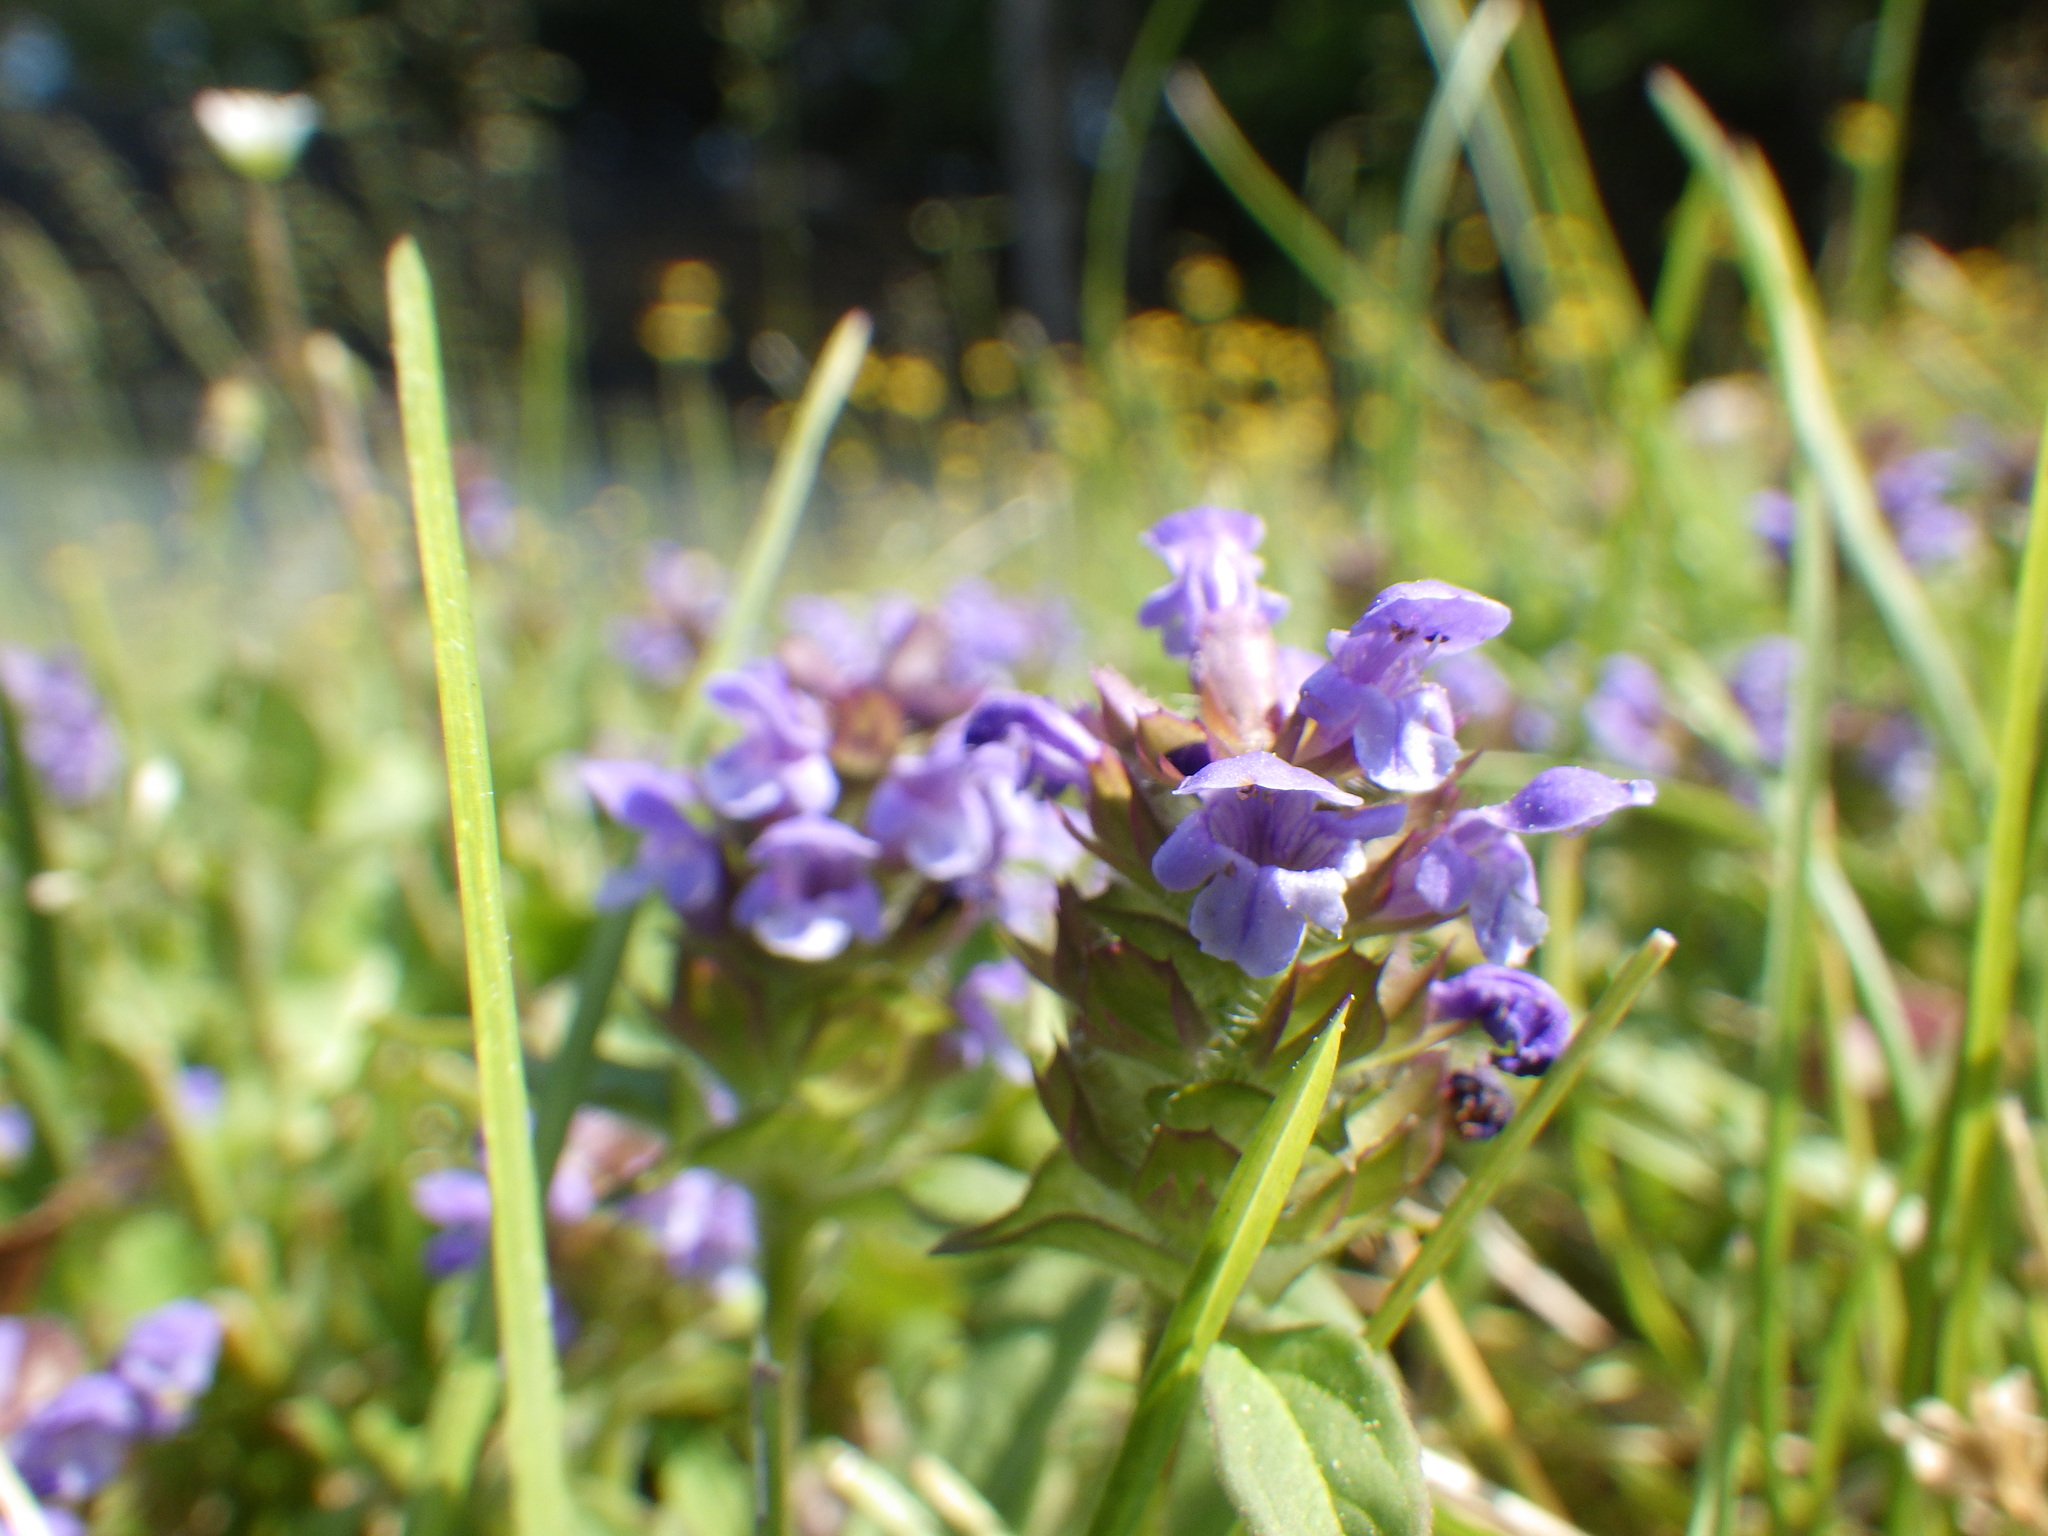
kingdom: Plantae
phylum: Tracheophyta
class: Magnoliopsida
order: Lamiales
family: Lamiaceae
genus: Prunella
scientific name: Prunella vulgaris
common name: Heal-all
